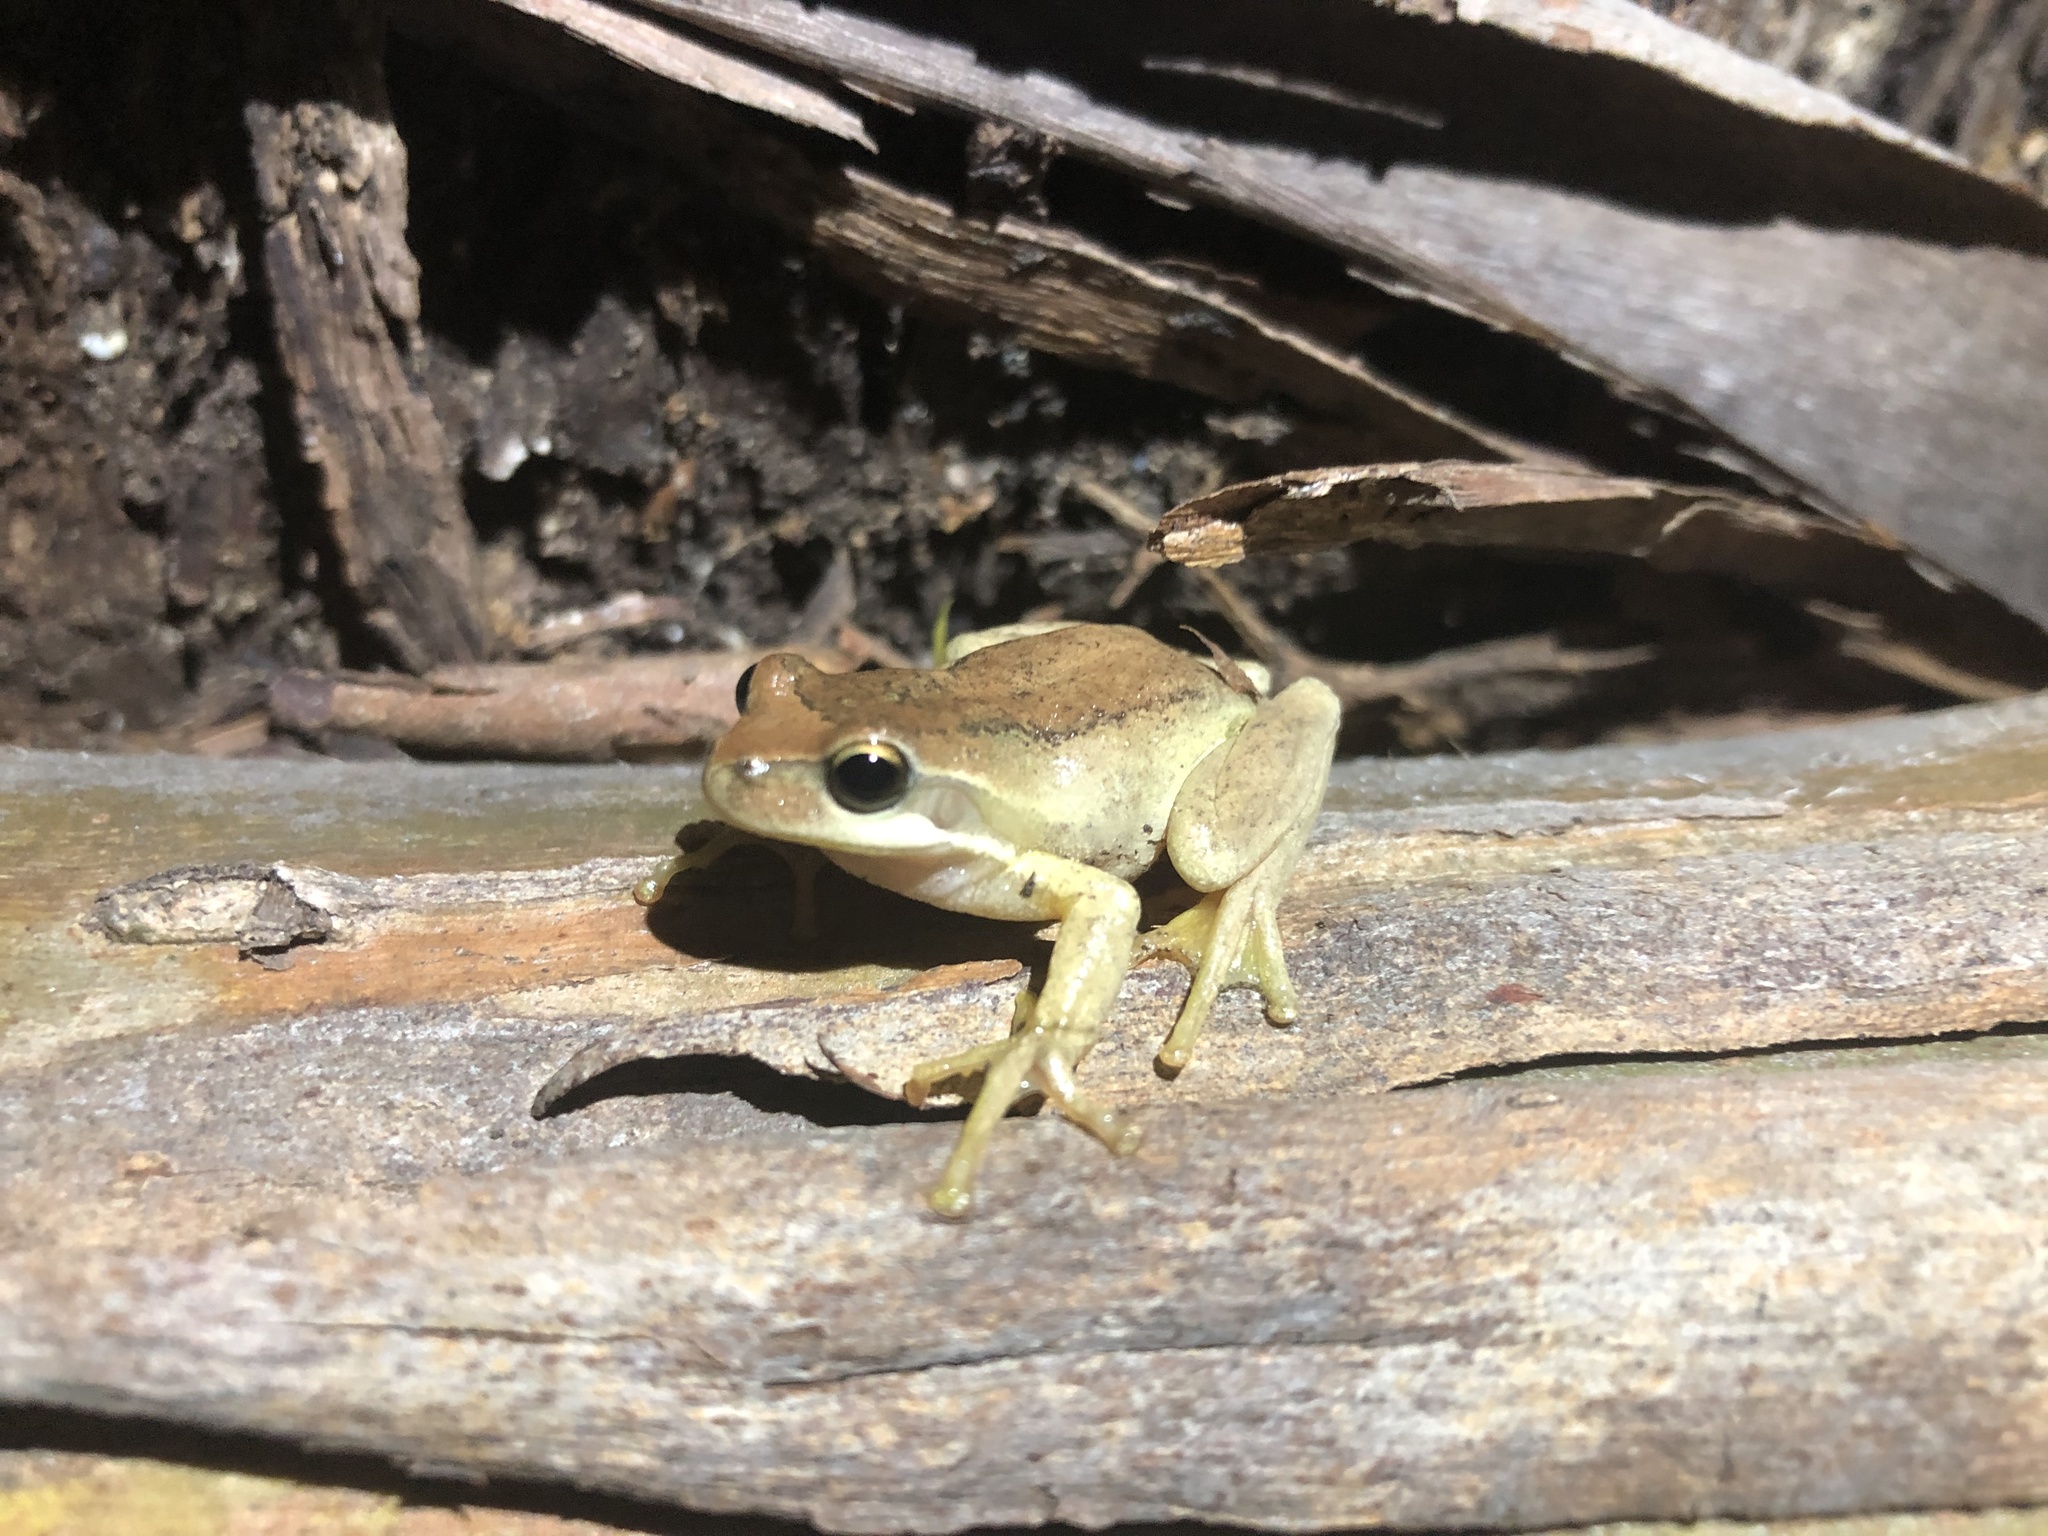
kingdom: Animalia
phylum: Chordata
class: Amphibia
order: Anura
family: Pelodryadidae
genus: Litoria
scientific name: Litoria
